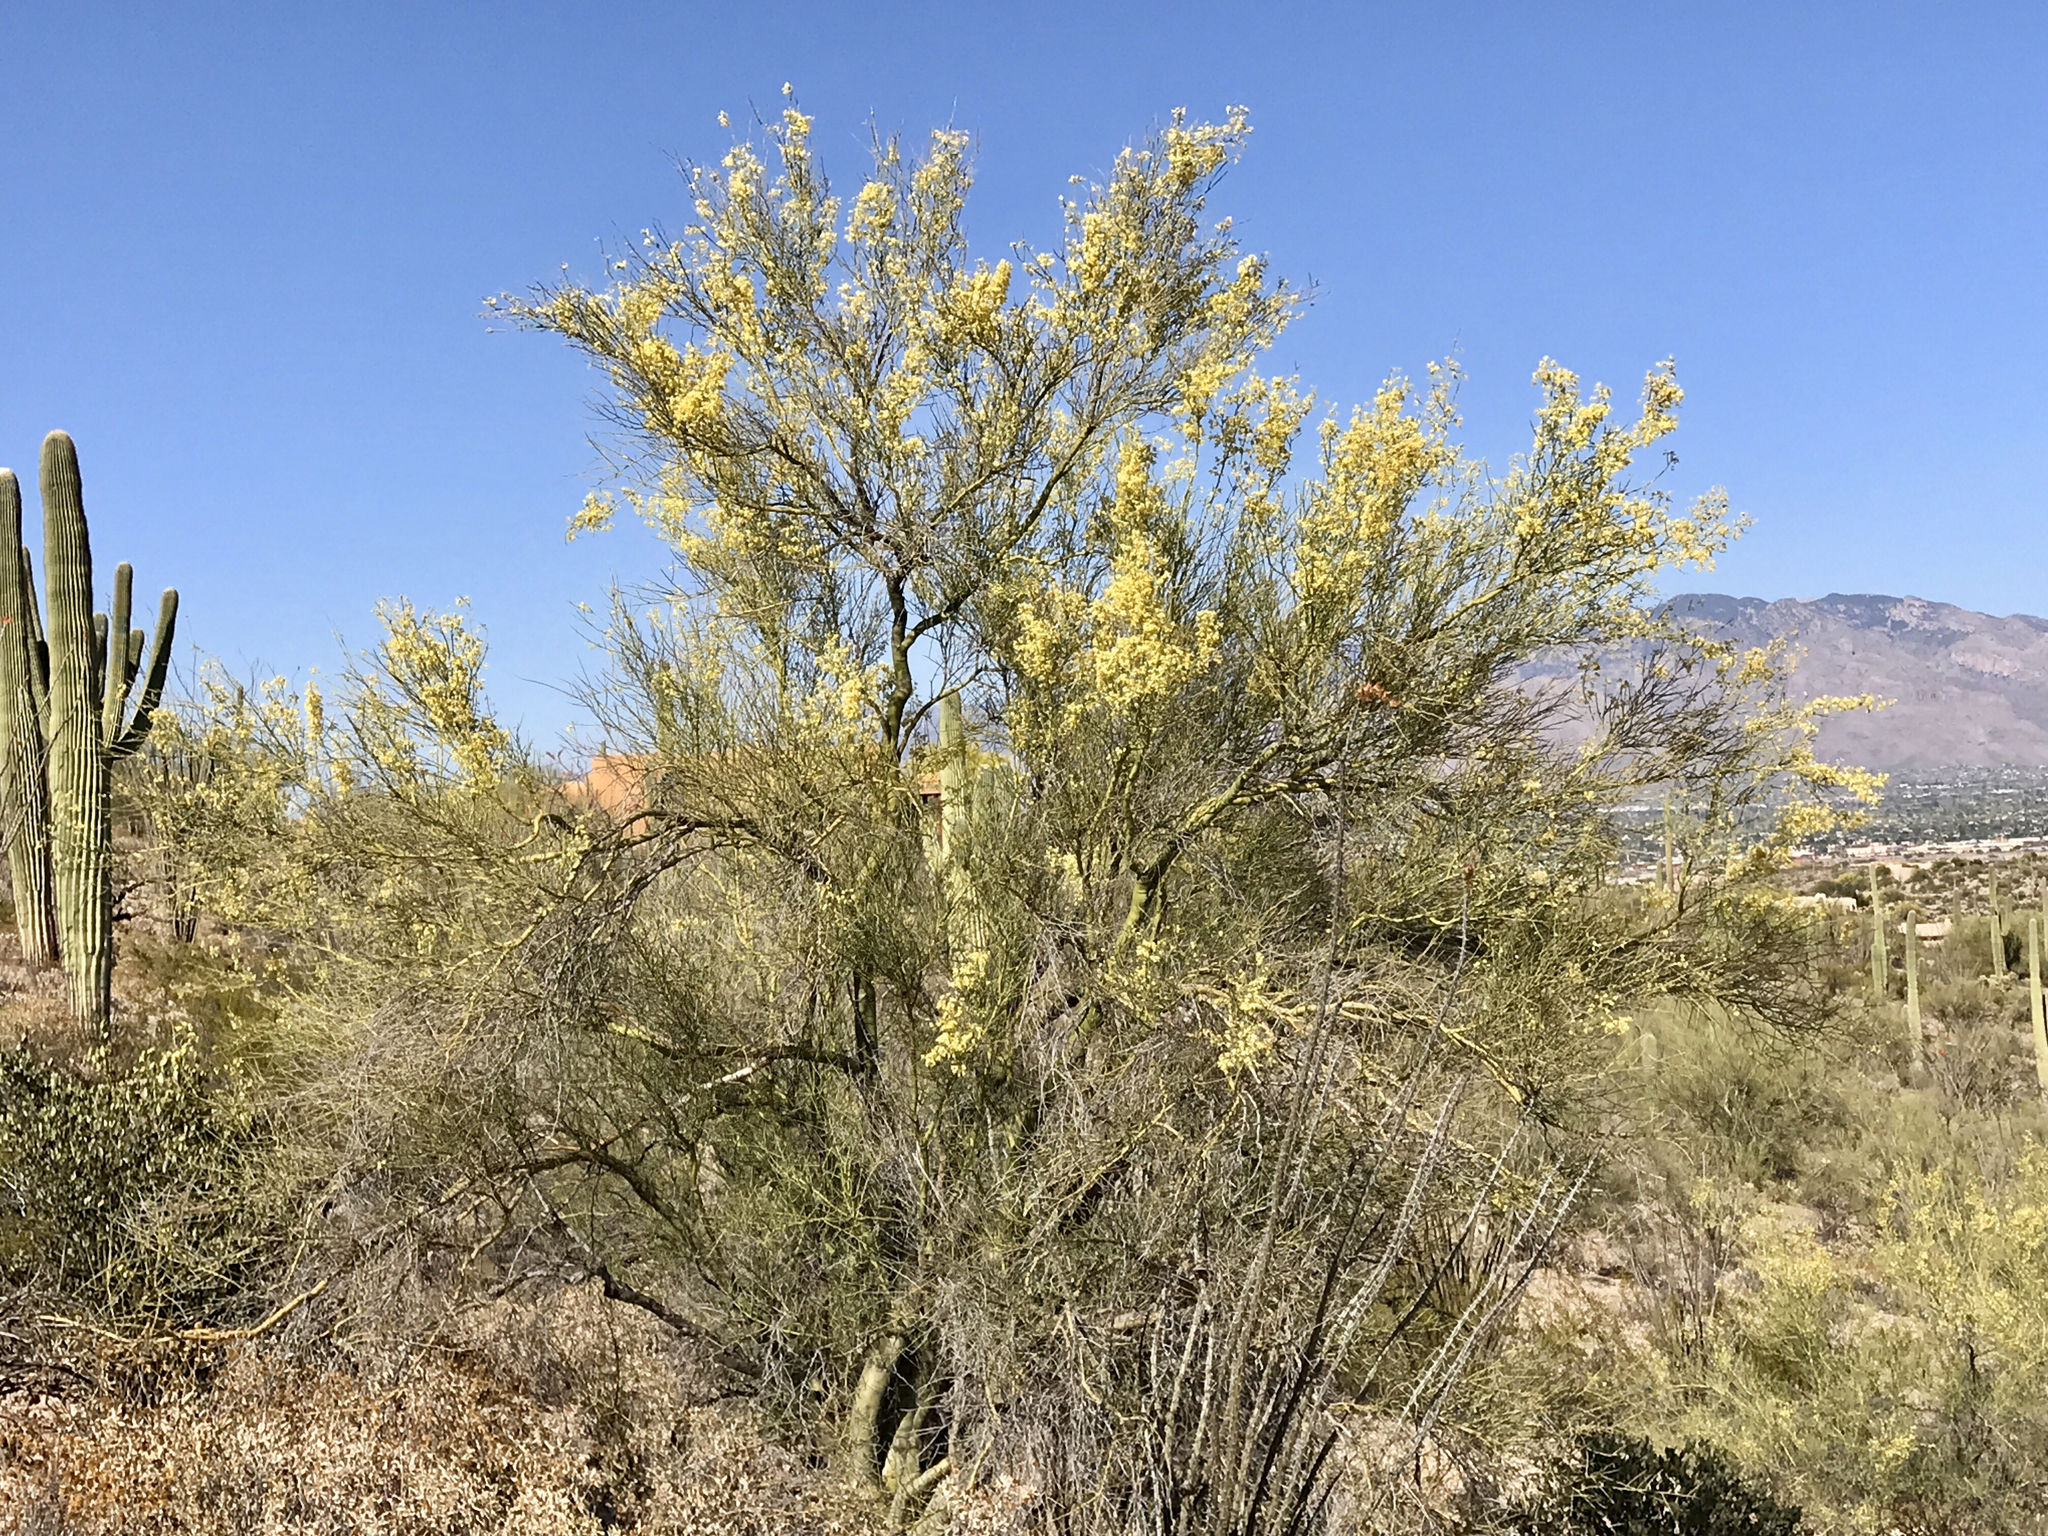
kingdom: Plantae
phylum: Tracheophyta
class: Magnoliopsida
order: Fabales
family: Fabaceae
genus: Parkinsonia
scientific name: Parkinsonia microphylla
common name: Yellow paloverde
